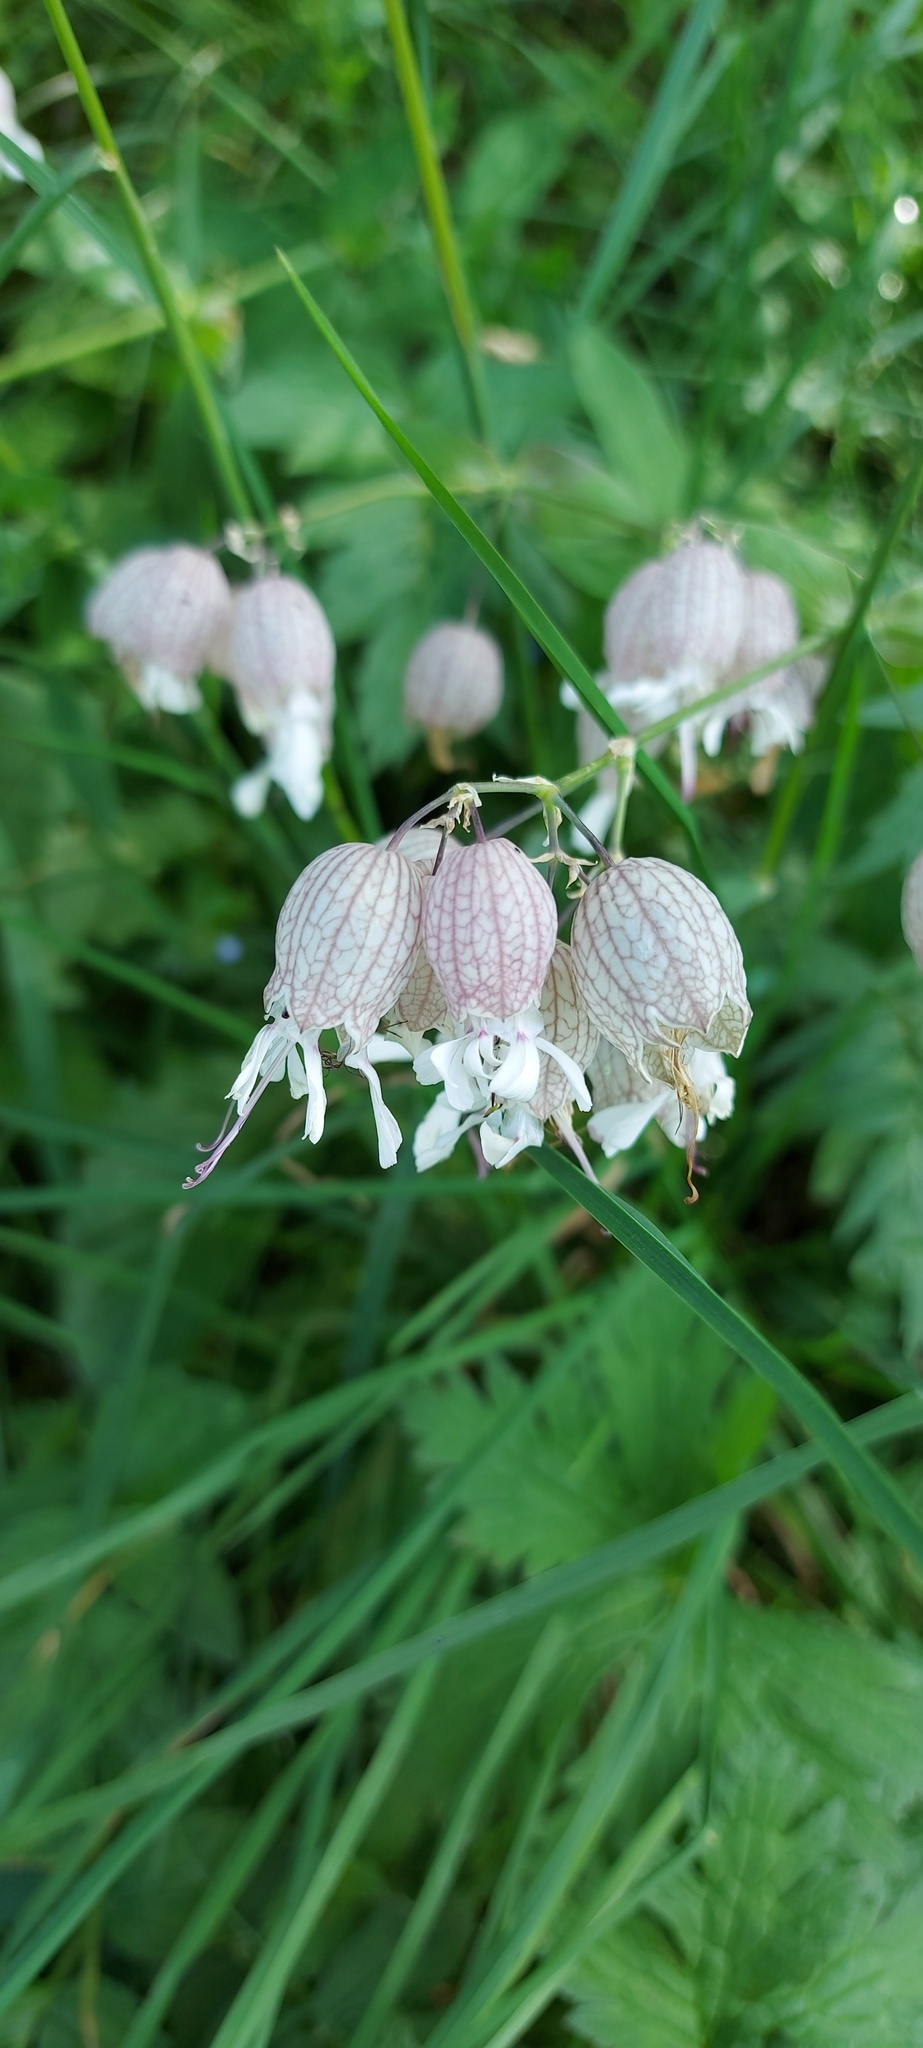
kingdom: Plantae
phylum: Tracheophyta
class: Magnoliopsida
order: Caryophyllales
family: Caryophyllaceae
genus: Silene
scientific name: Silene vulgaris
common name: Bladder campion
